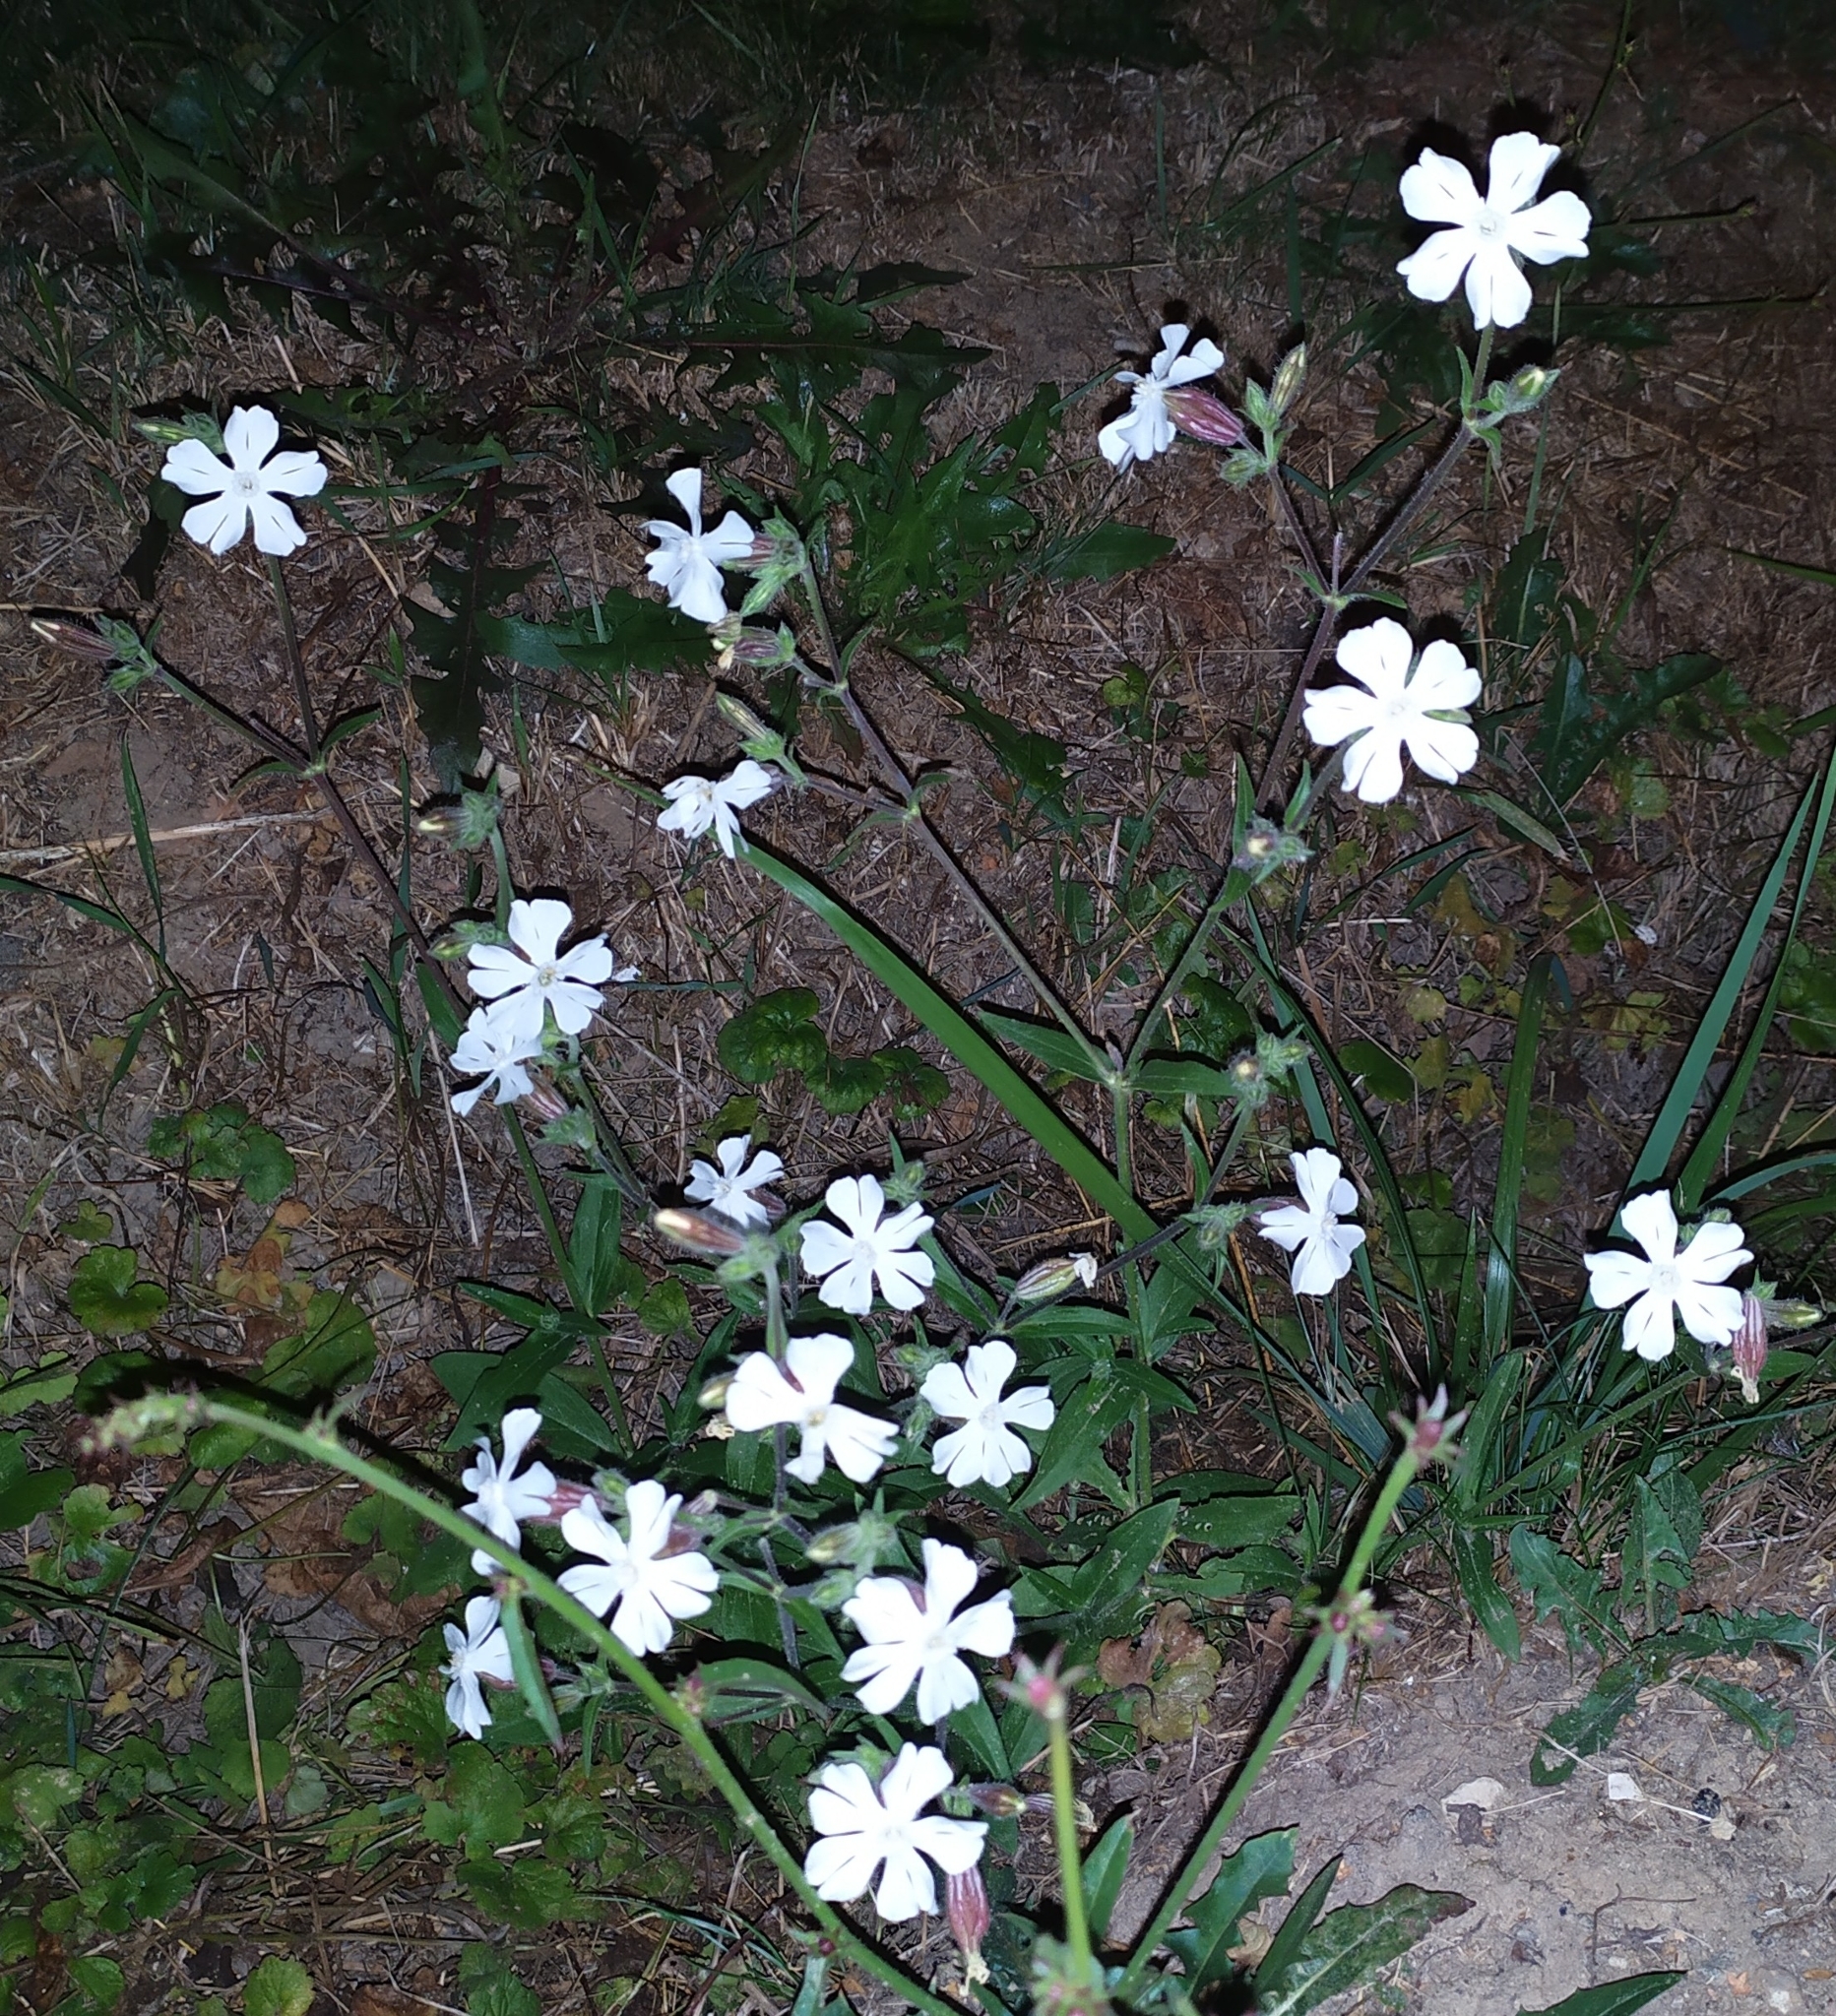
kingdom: Plantae
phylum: Tracheophyta
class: Magnoliopsida
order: Caryophyllales
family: Caryophyllaceae
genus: Silene
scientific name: Silene latifolia
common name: White campion
